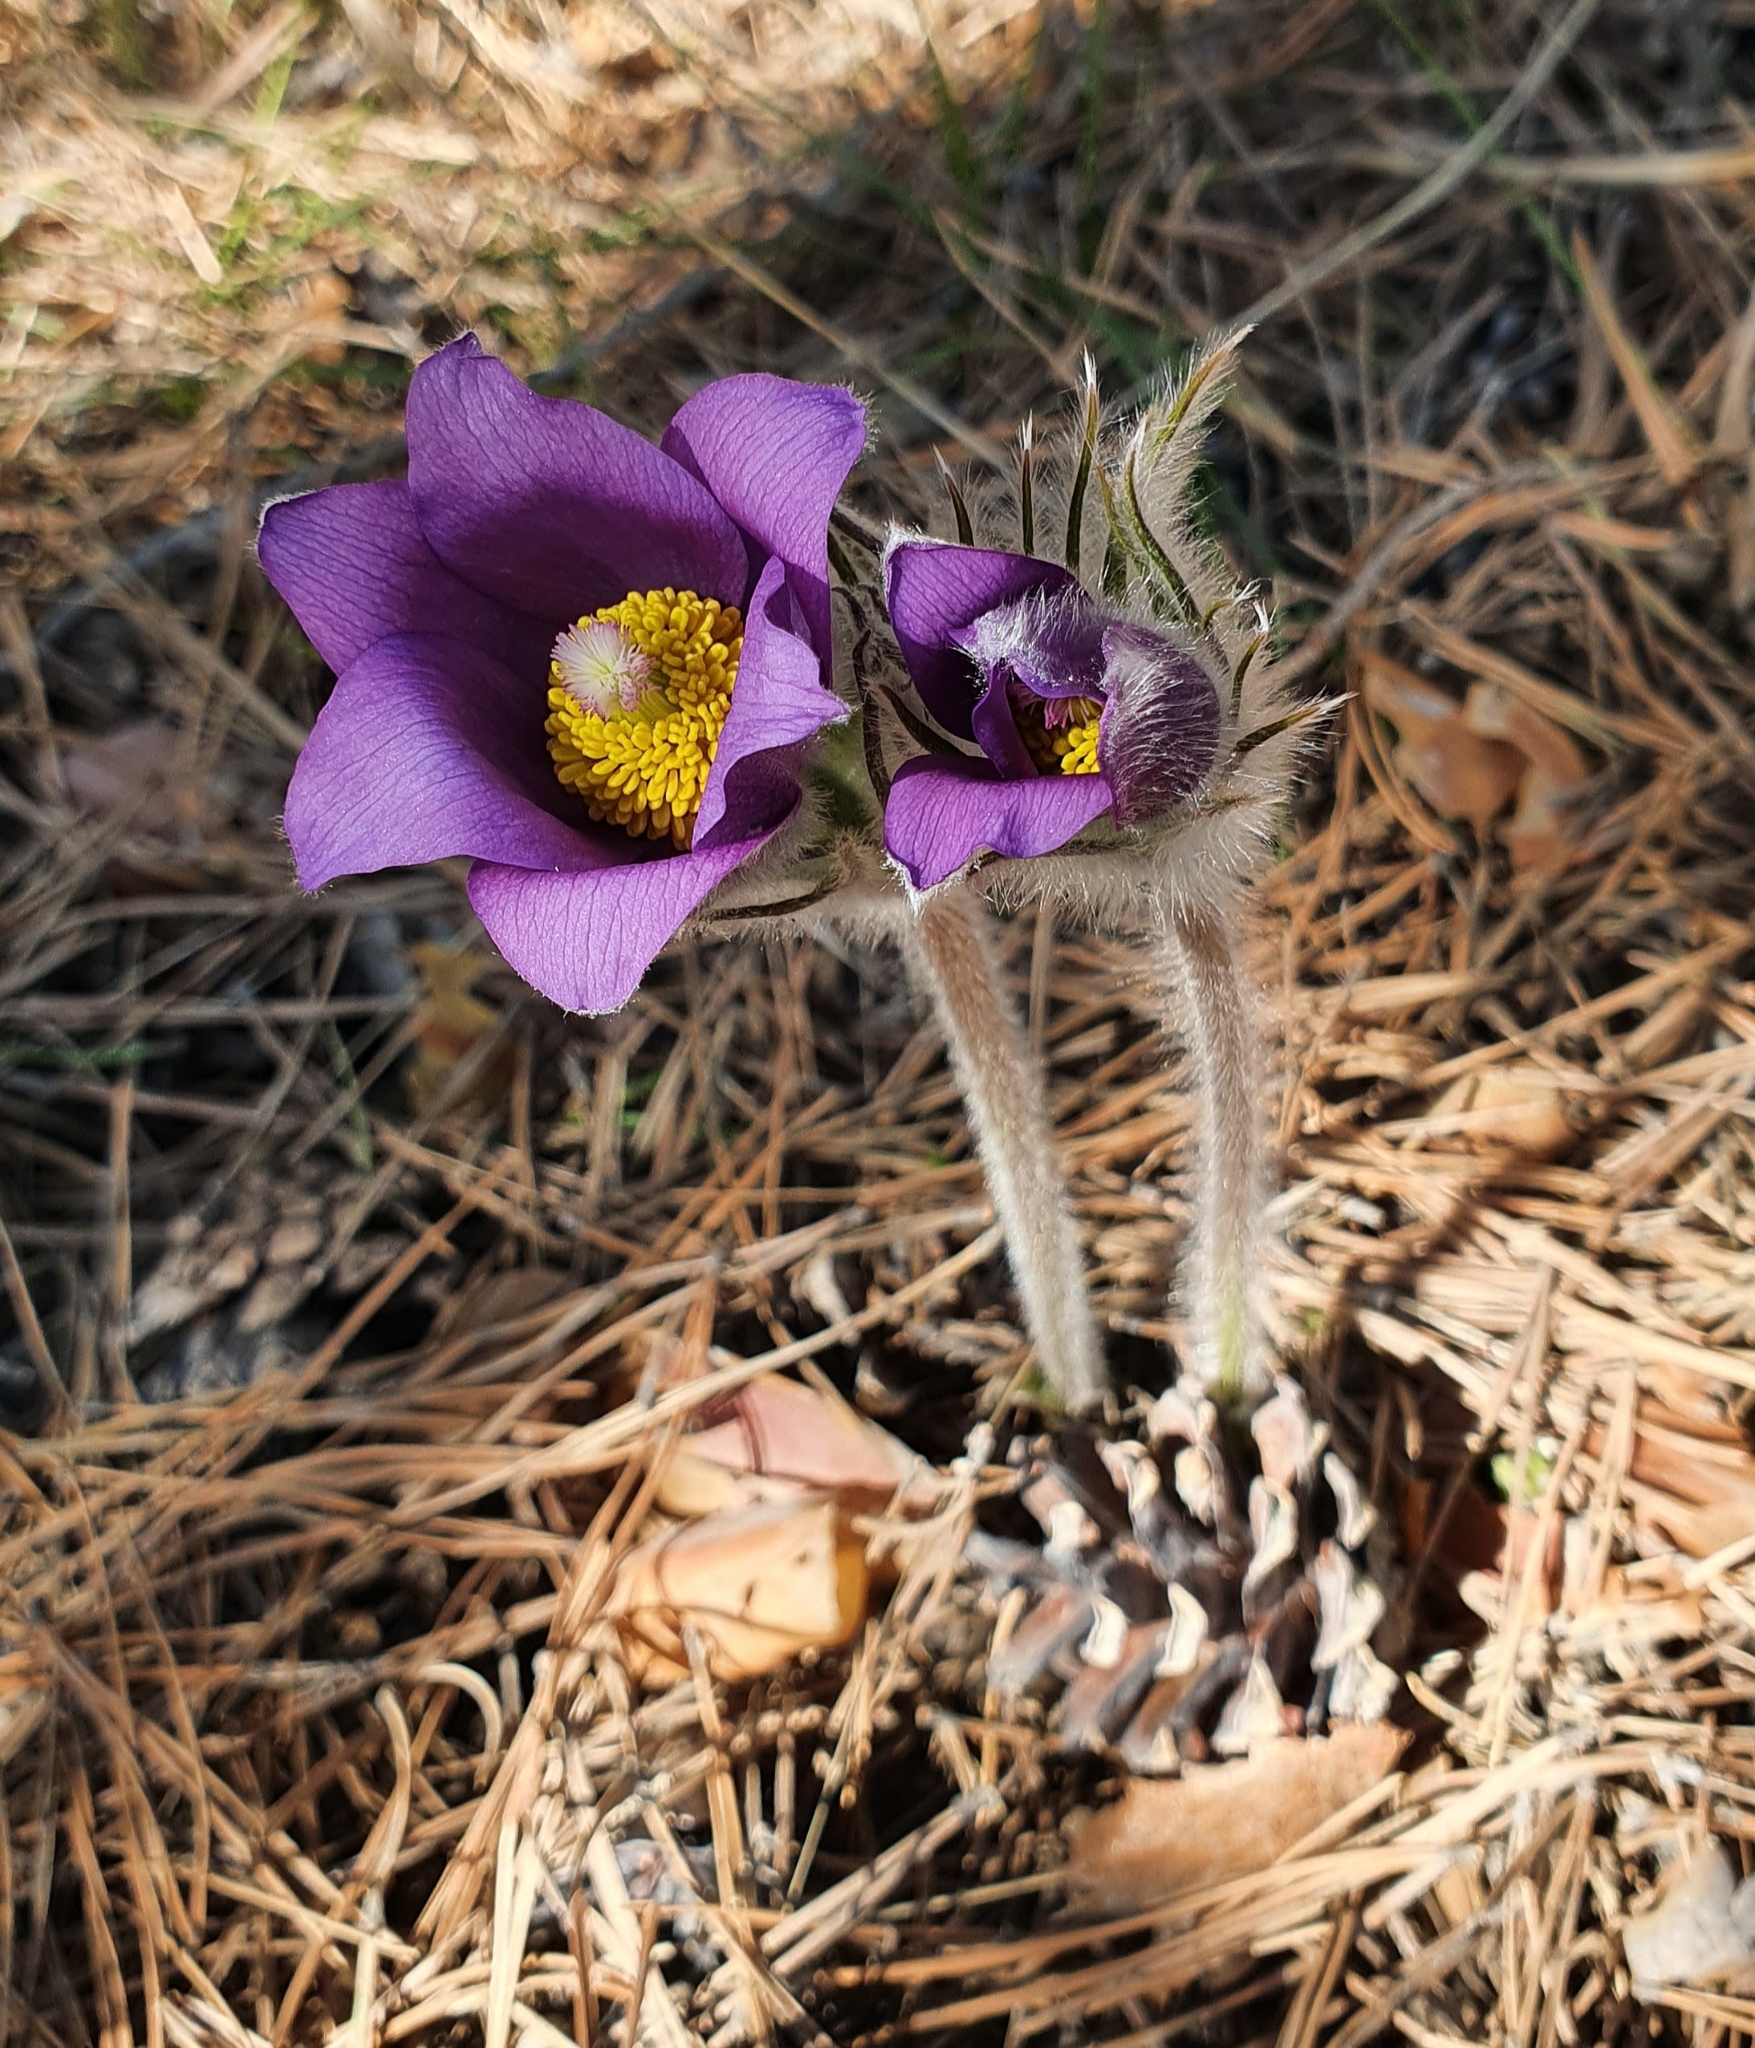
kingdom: Plantae
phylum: Tracheophyta
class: Magnoliopsida
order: Ranunculales
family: Ranunculaceae
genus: Pulsatilla
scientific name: Pulsatilla patens
